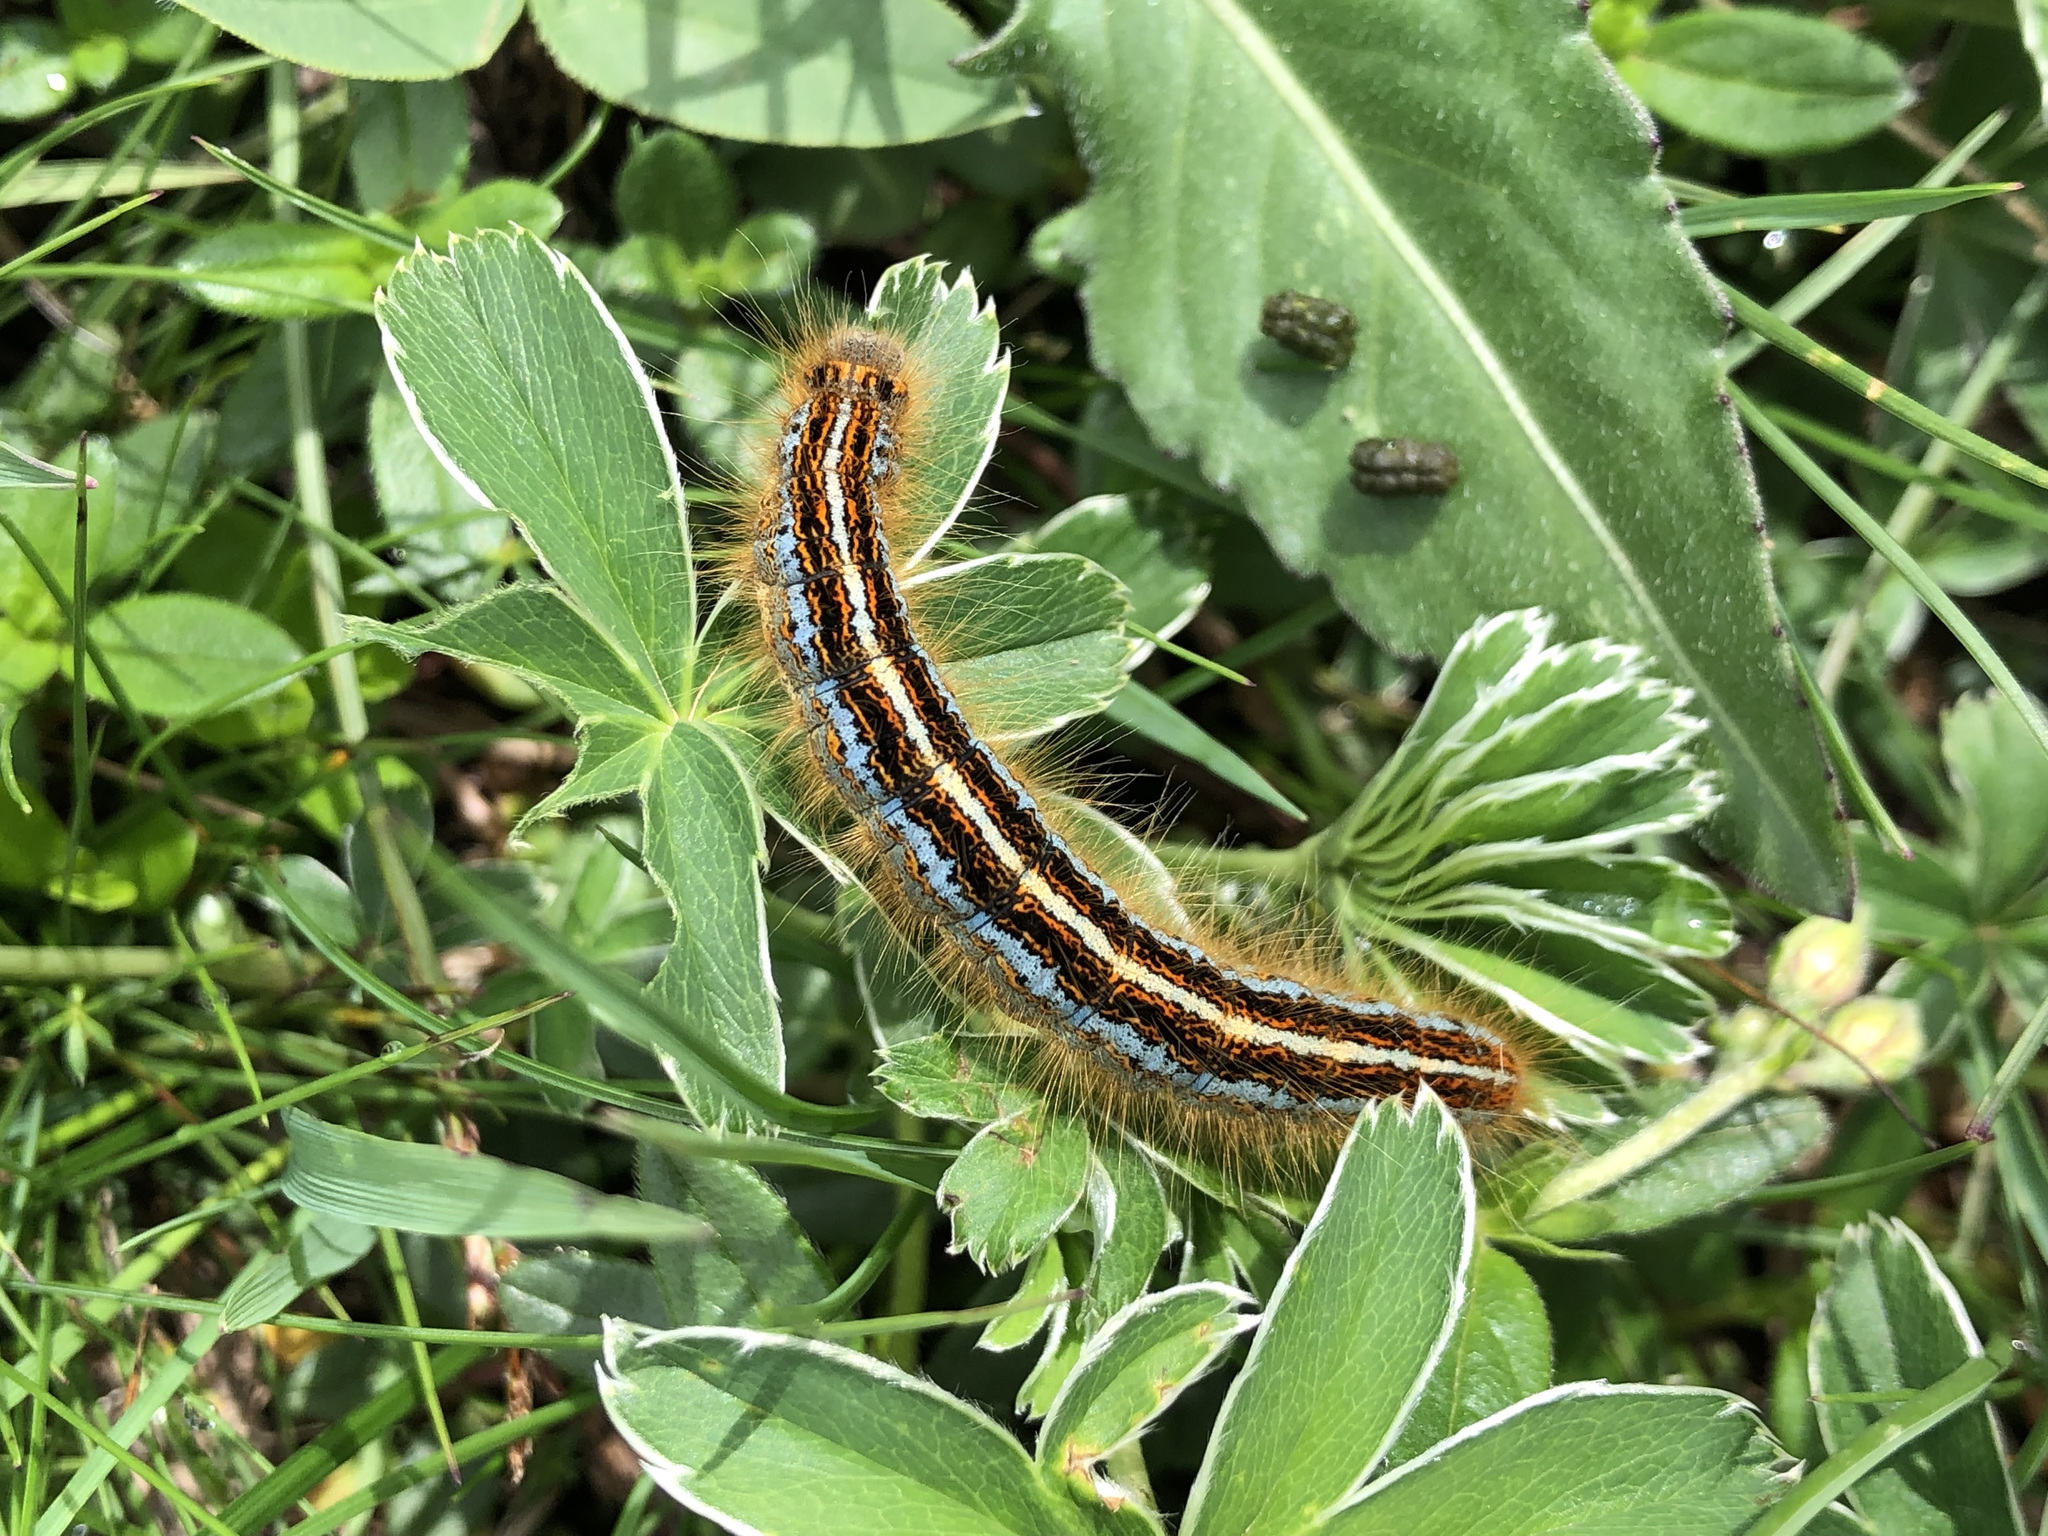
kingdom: Animalia
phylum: Arthropoda
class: Insecta
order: Lepidoptera
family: Lasiocampidae
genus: Malacosoma
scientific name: Malacosoma alpicola
